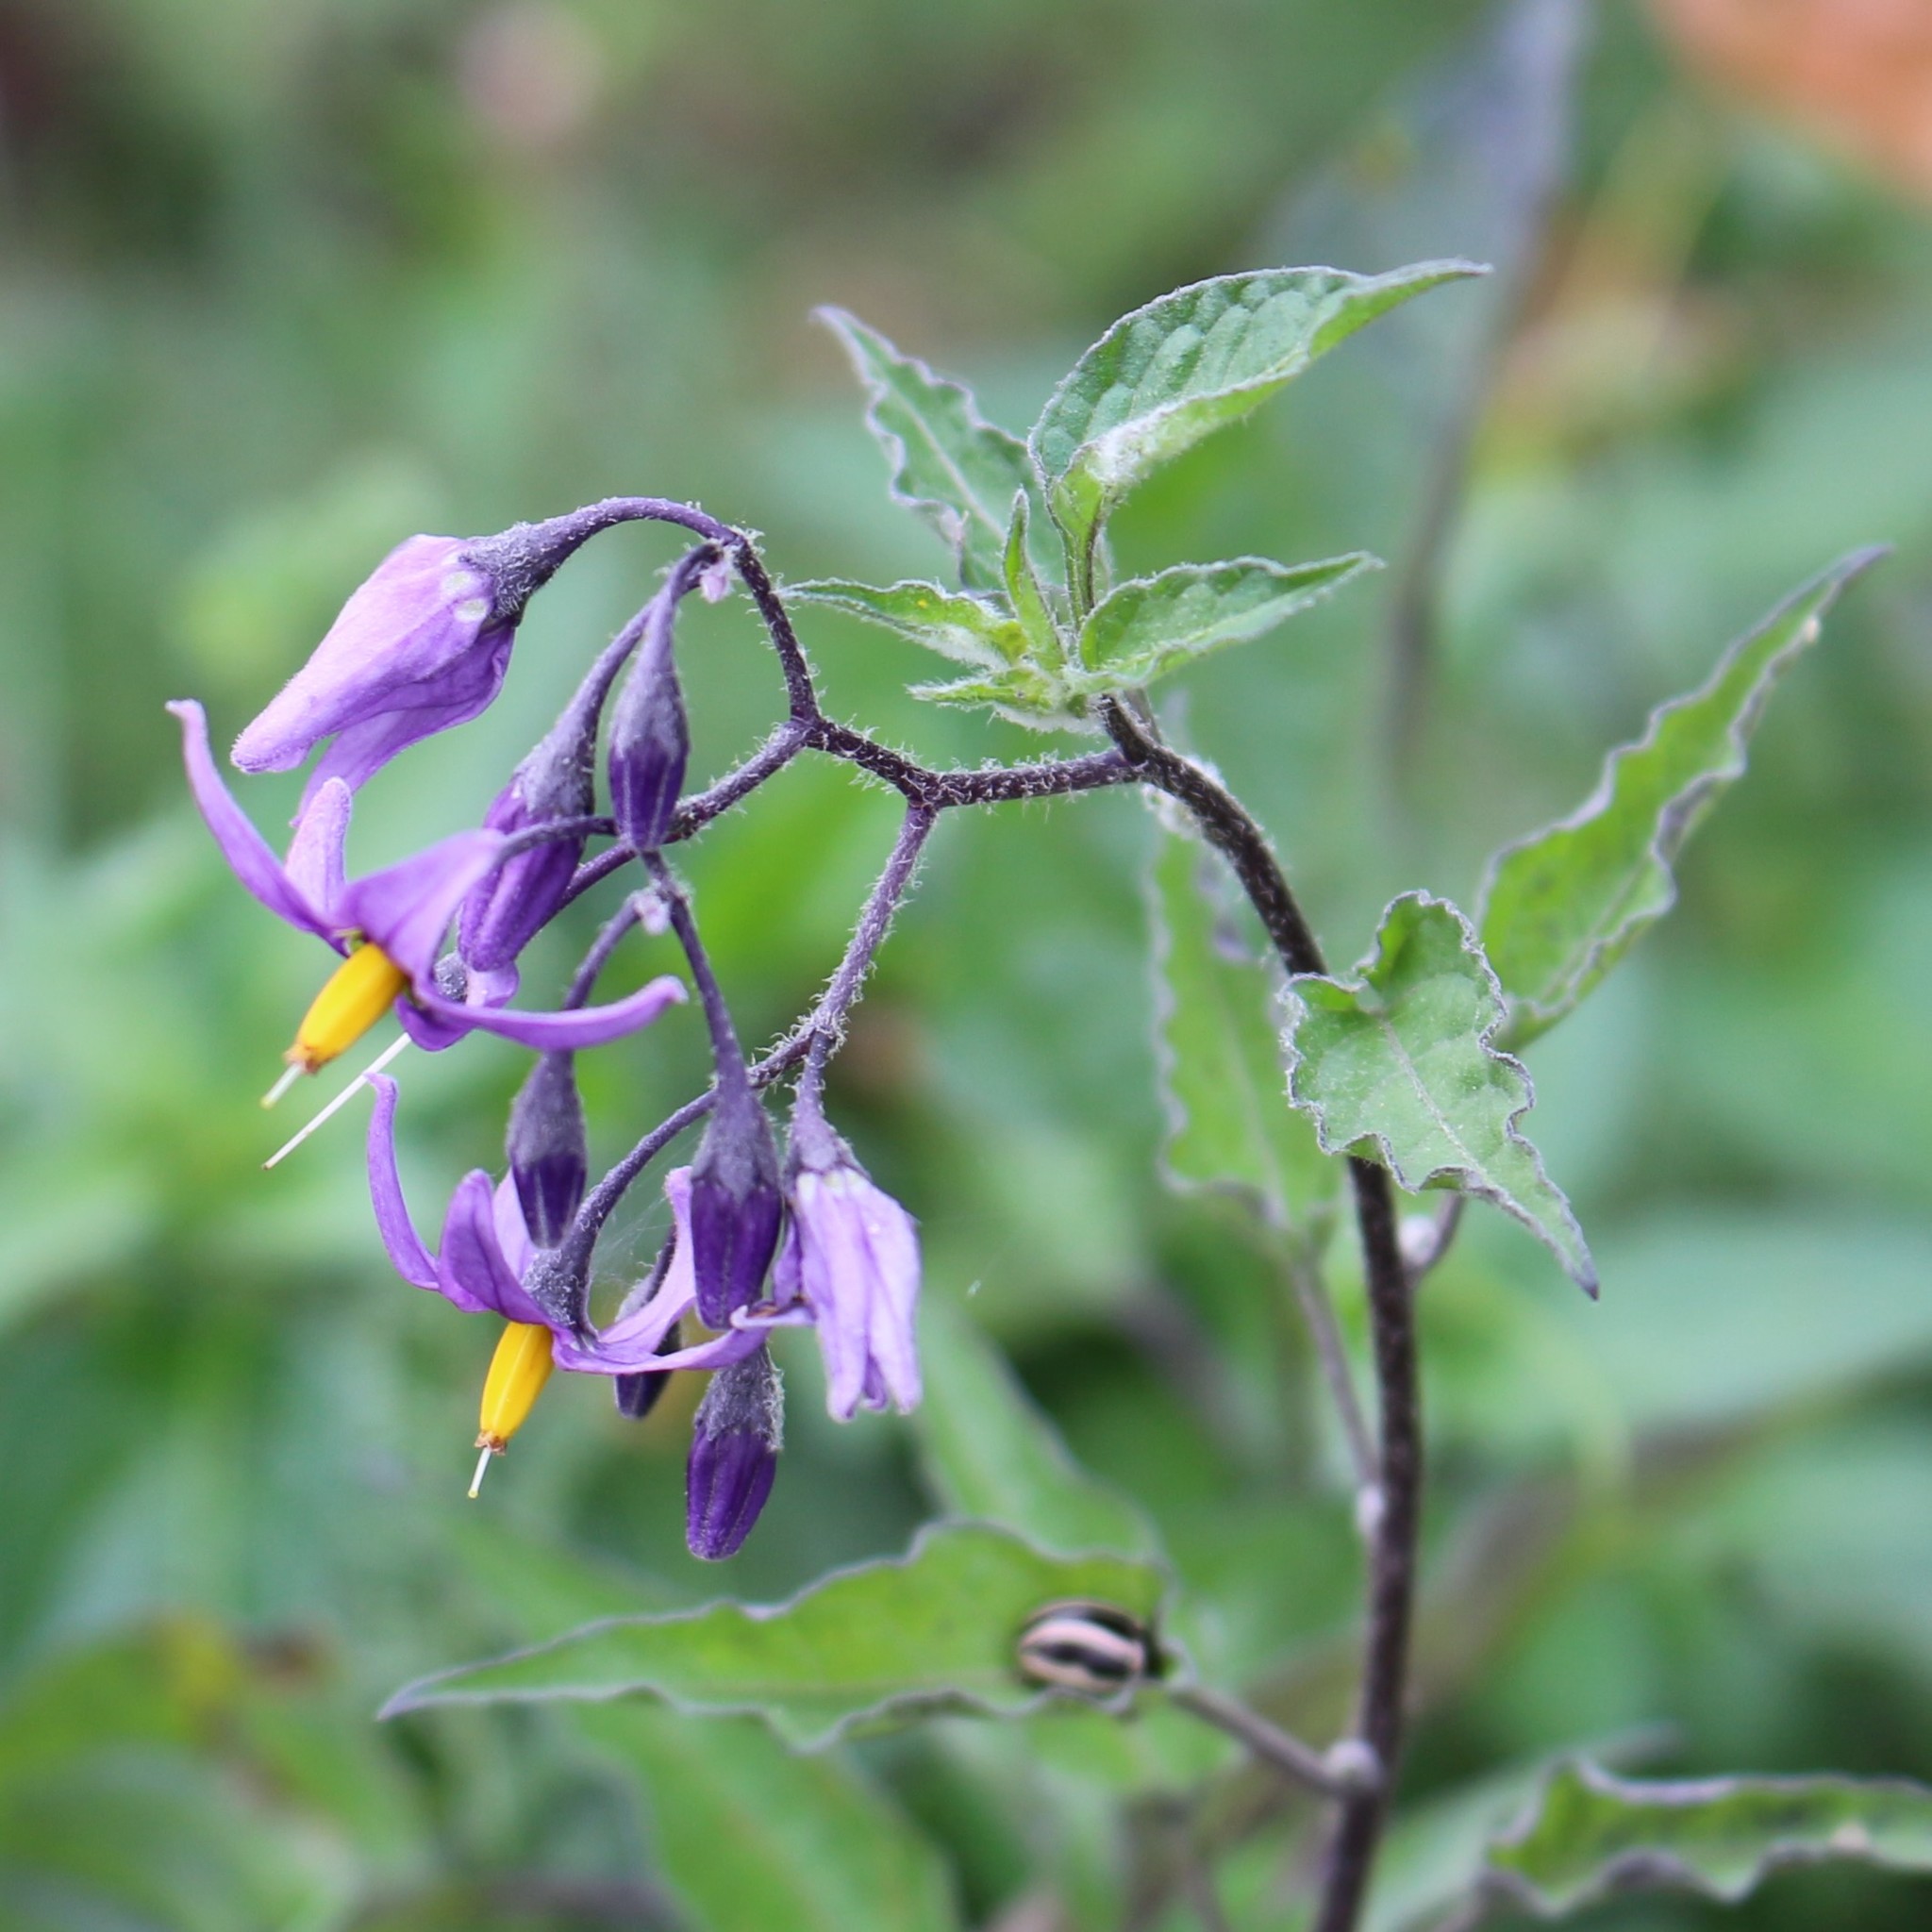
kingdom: Plantae
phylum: Tracheophyta
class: Magnoliopsida
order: Solanales
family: Solanaceae
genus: Solanum
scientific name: Solanum dulcamara
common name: Climbing nightshade
